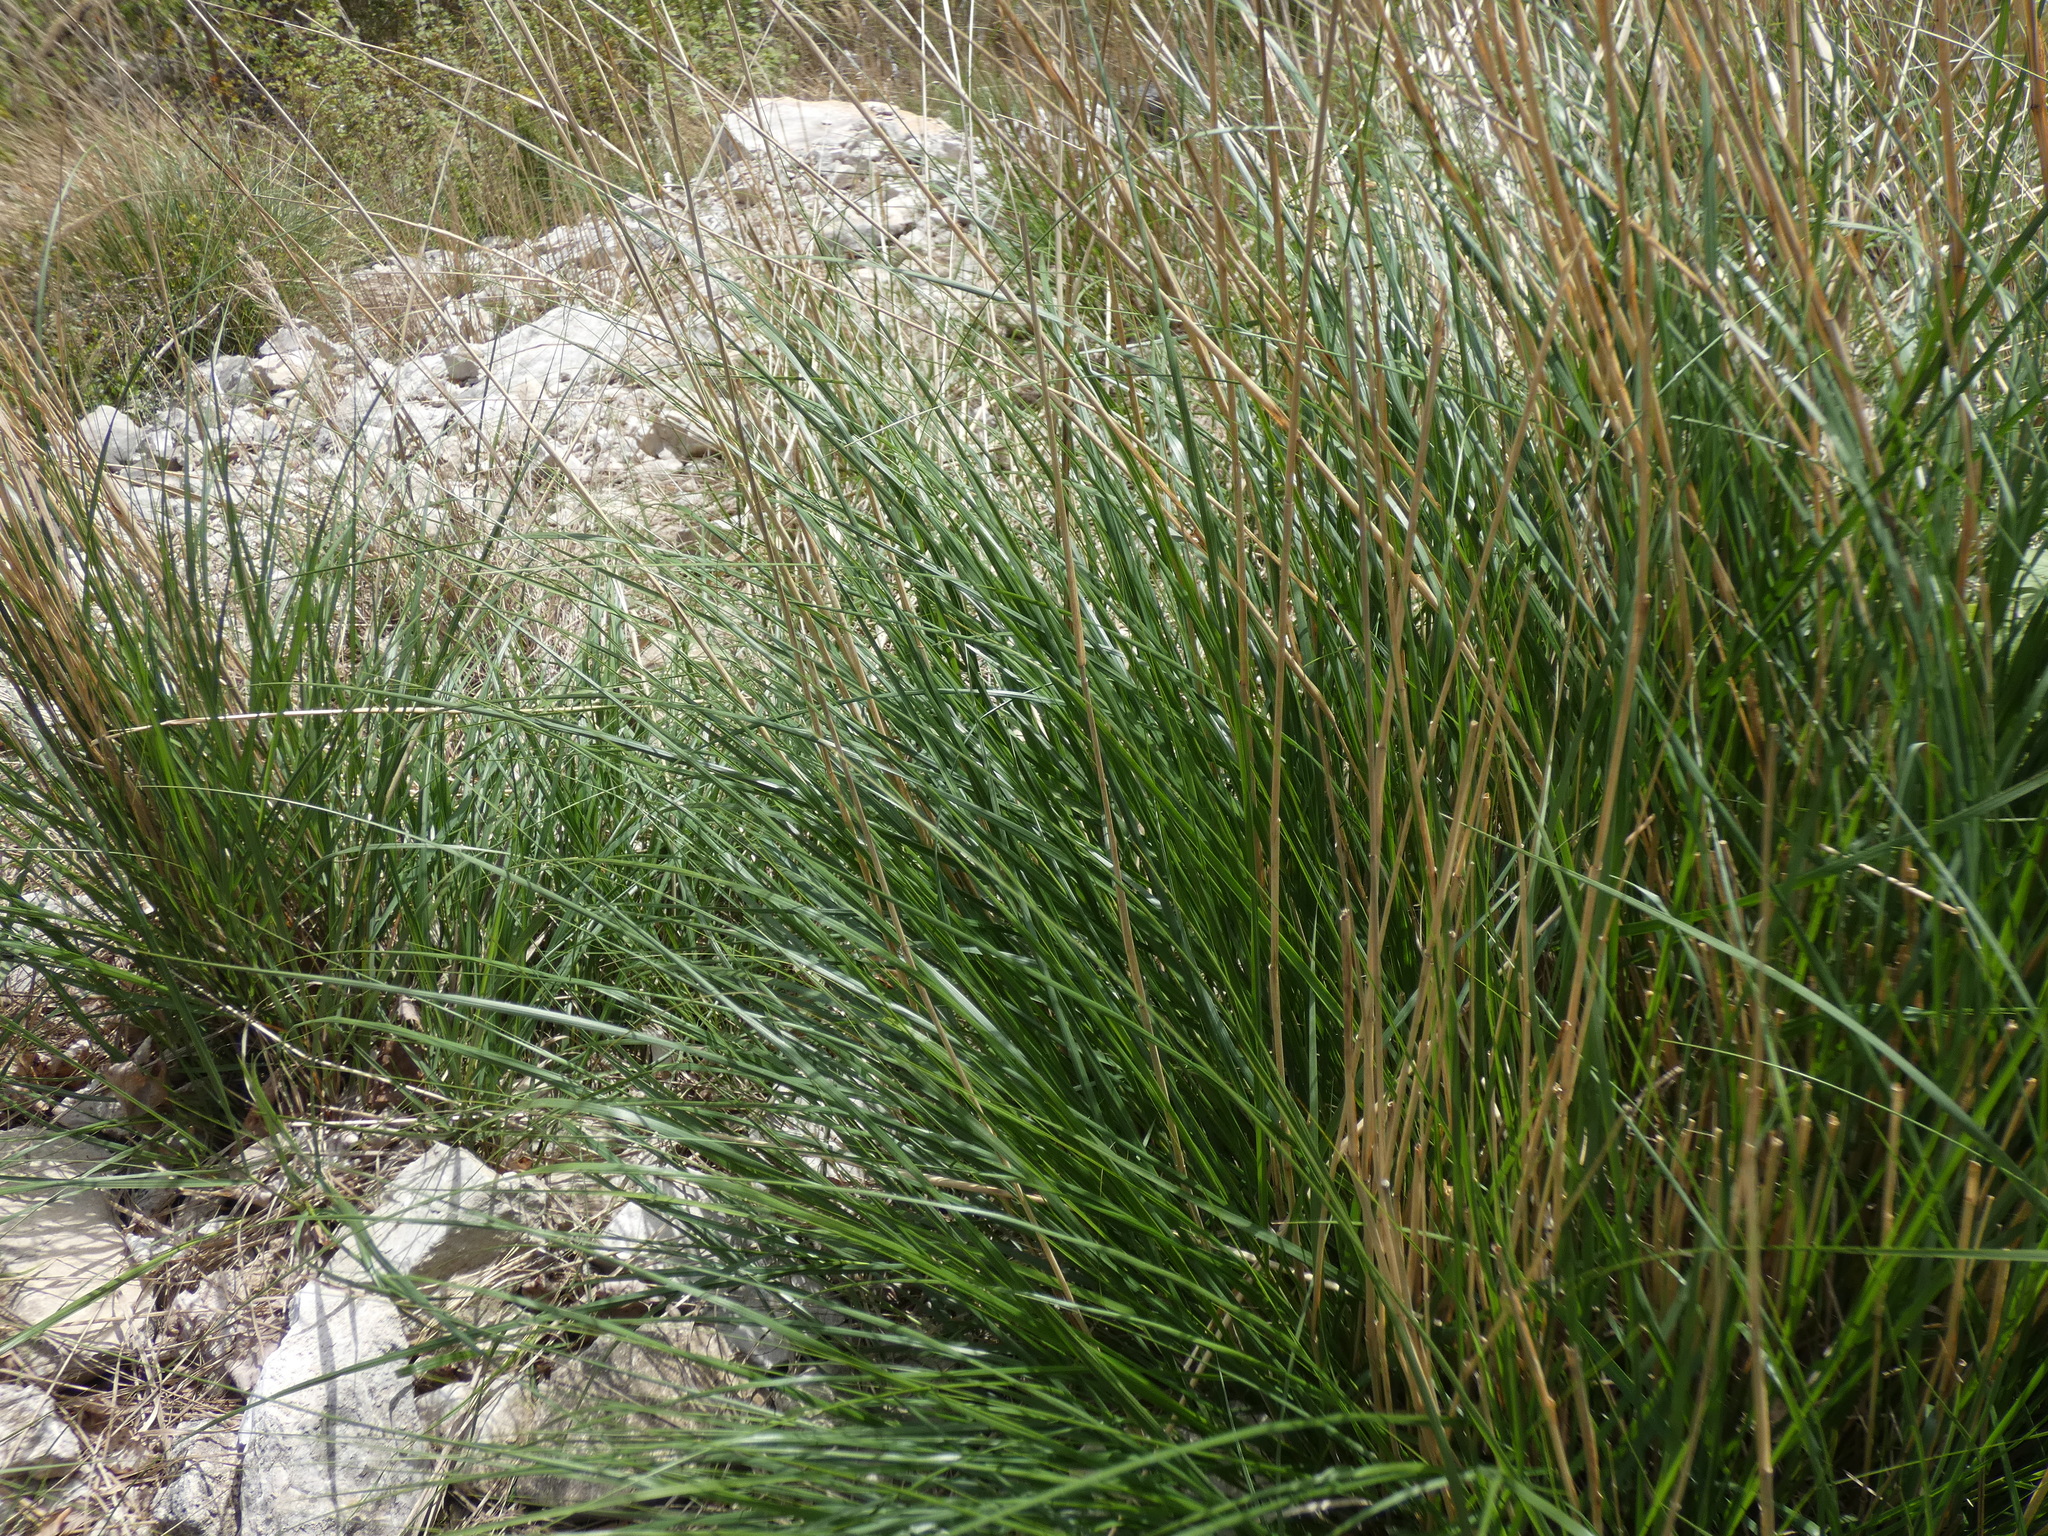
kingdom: Plantae
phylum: Tracheophyta
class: Liliopsida
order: Poales
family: Poaceae
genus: Achnatherum
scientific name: Achnatherum calamagrostis
